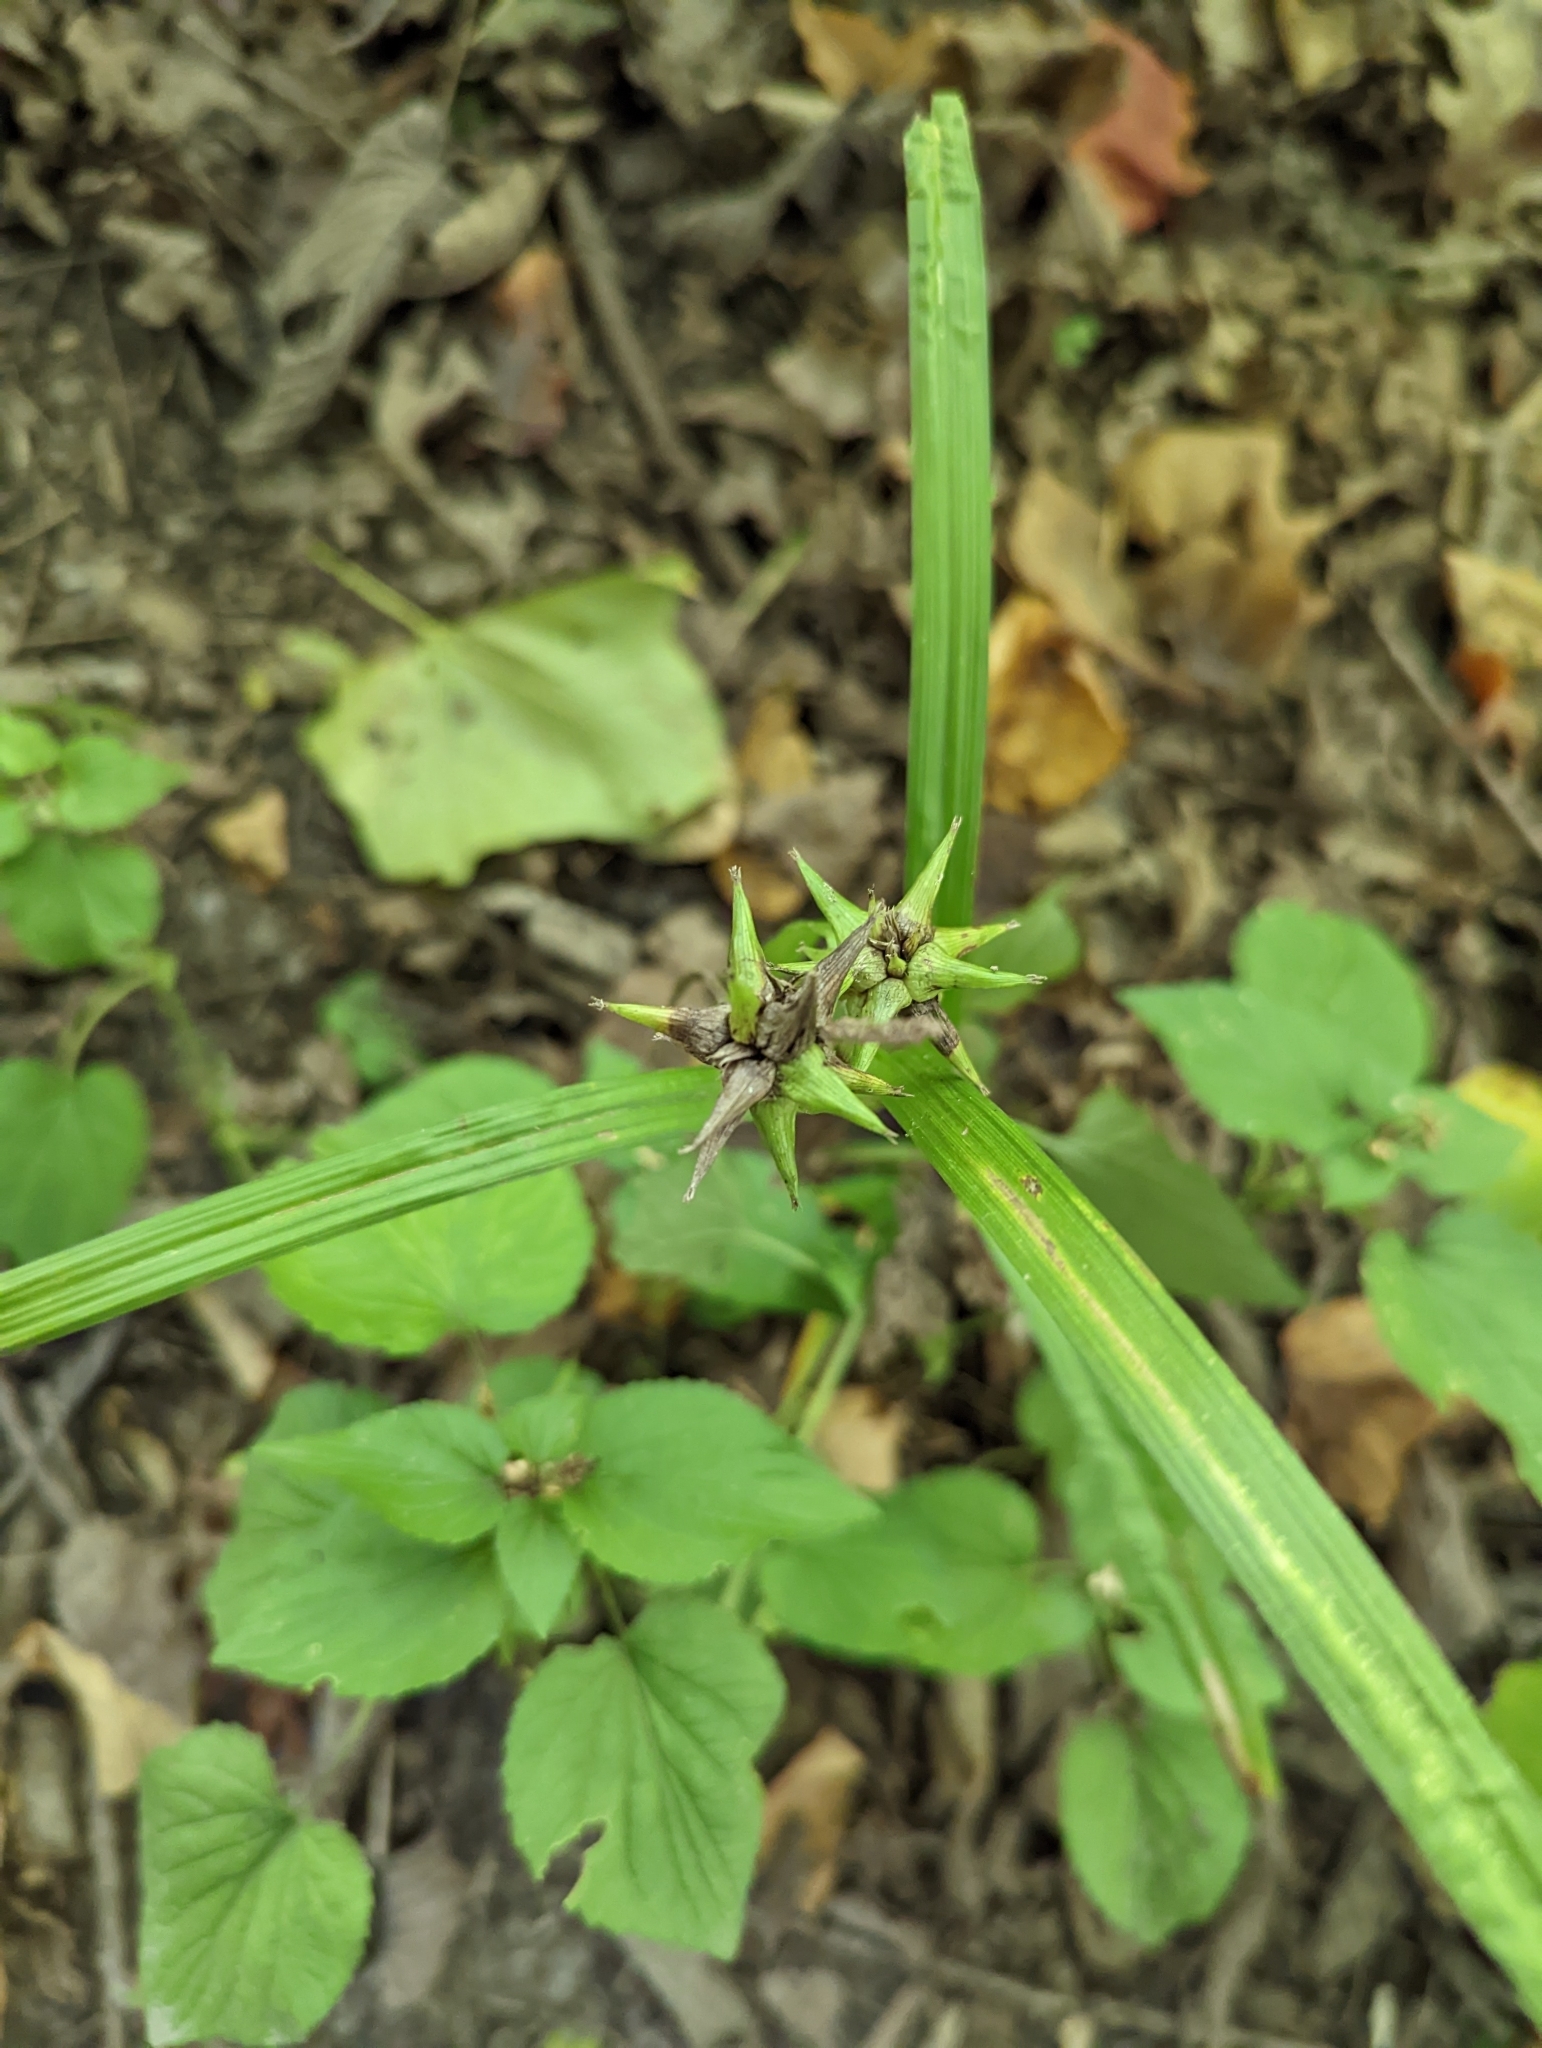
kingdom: Plantae
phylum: Tracheophyta
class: Liliopsida
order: Poales
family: Cyperaceae
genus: Carex
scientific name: Carex grayi
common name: Asa gray's sedge
